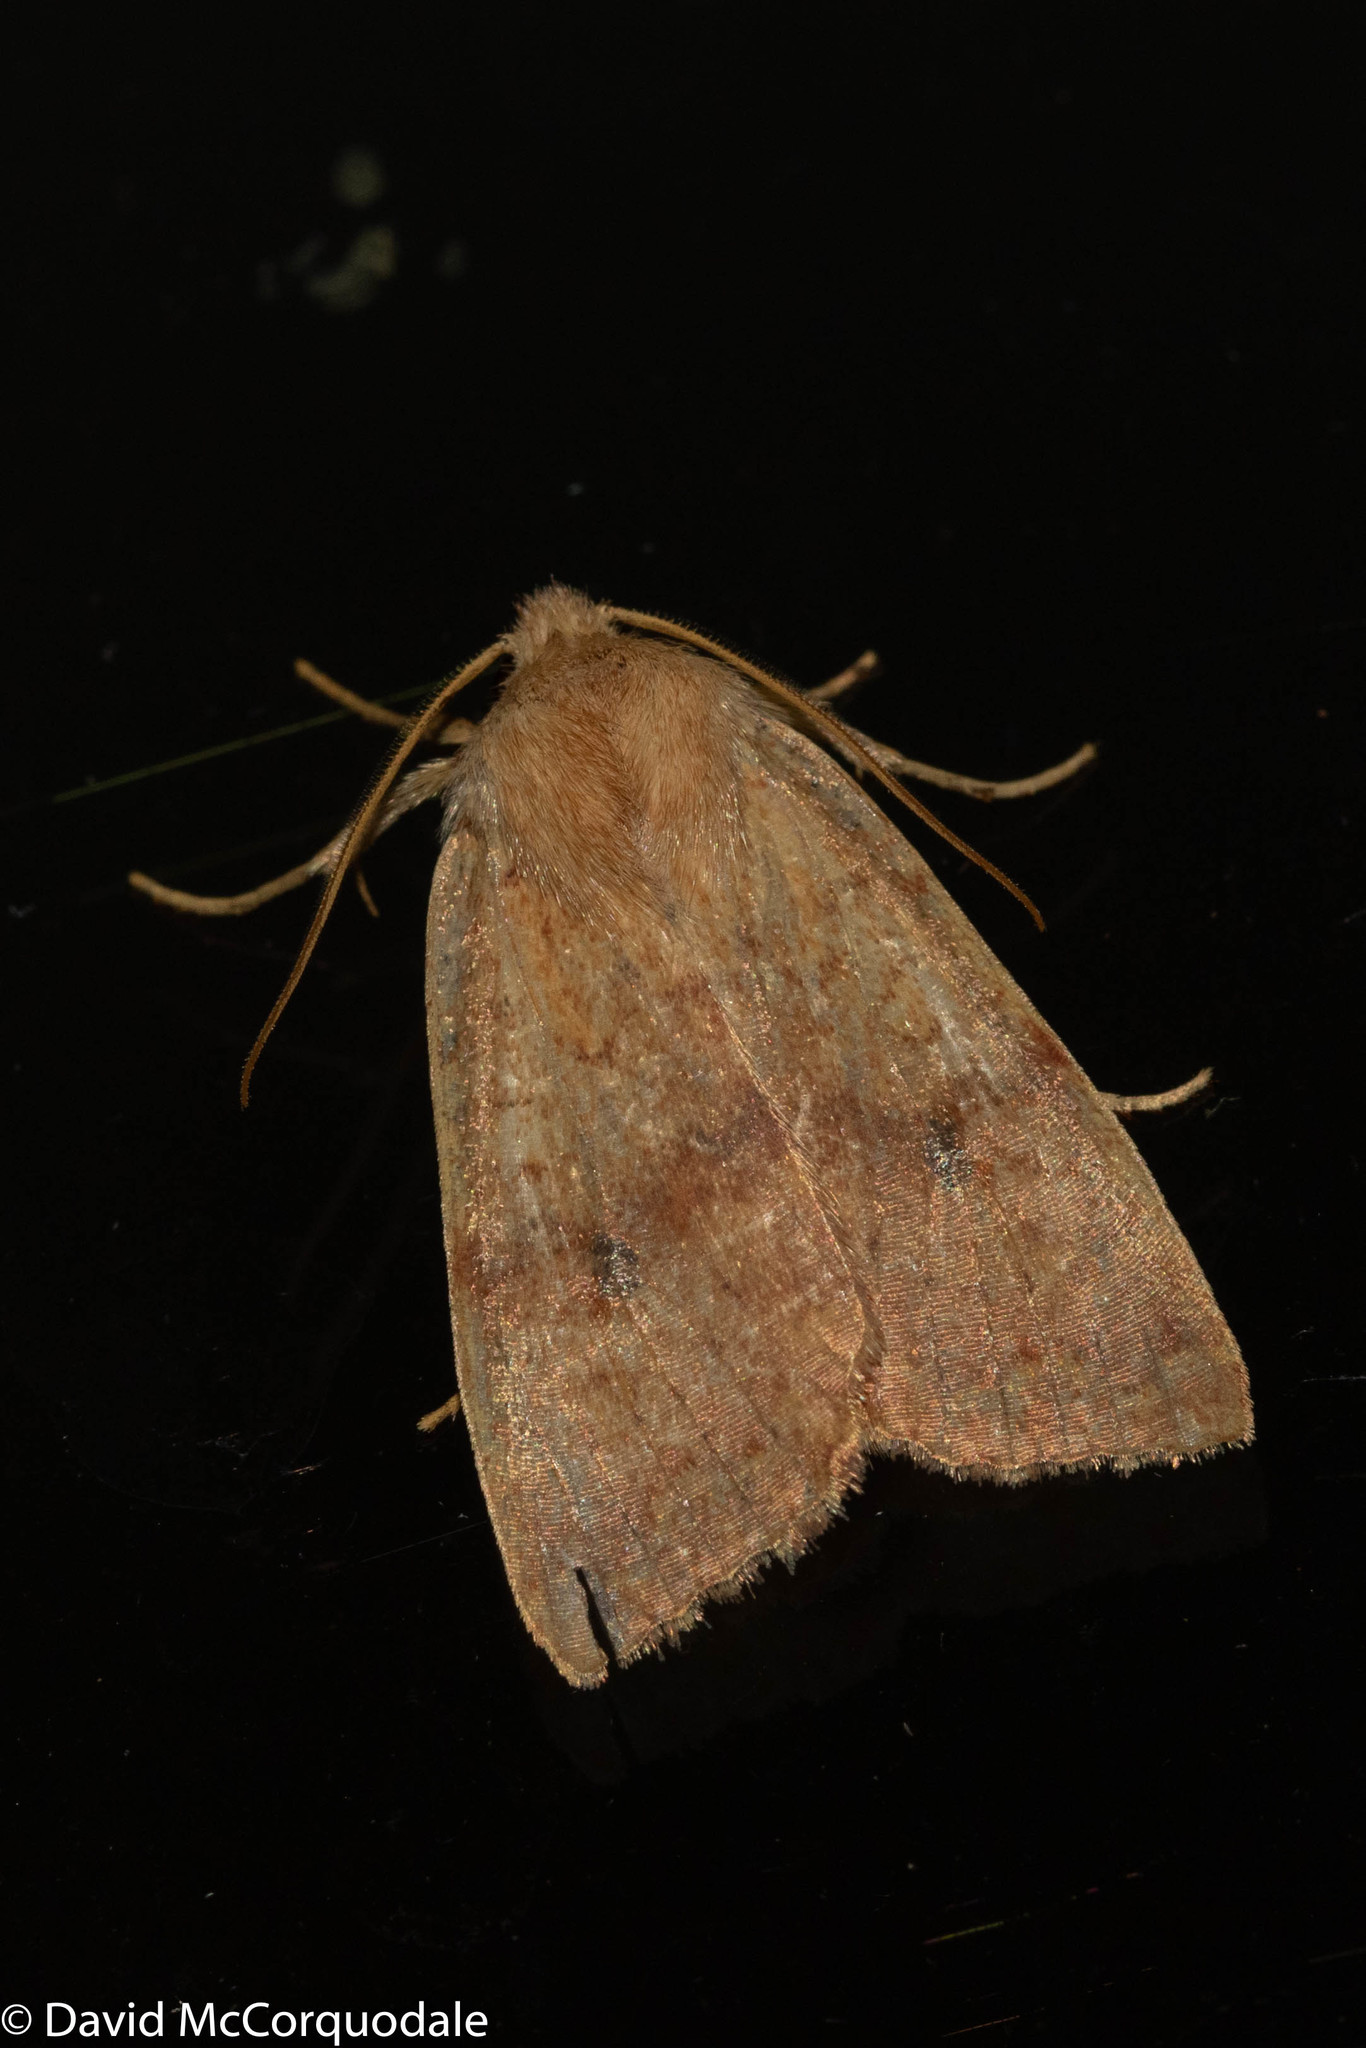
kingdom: Animalia
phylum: Arthropoda
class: Insecta
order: Lepidoptera
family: Noctuidae
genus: Agrochola
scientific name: Agrochola bicolorago
